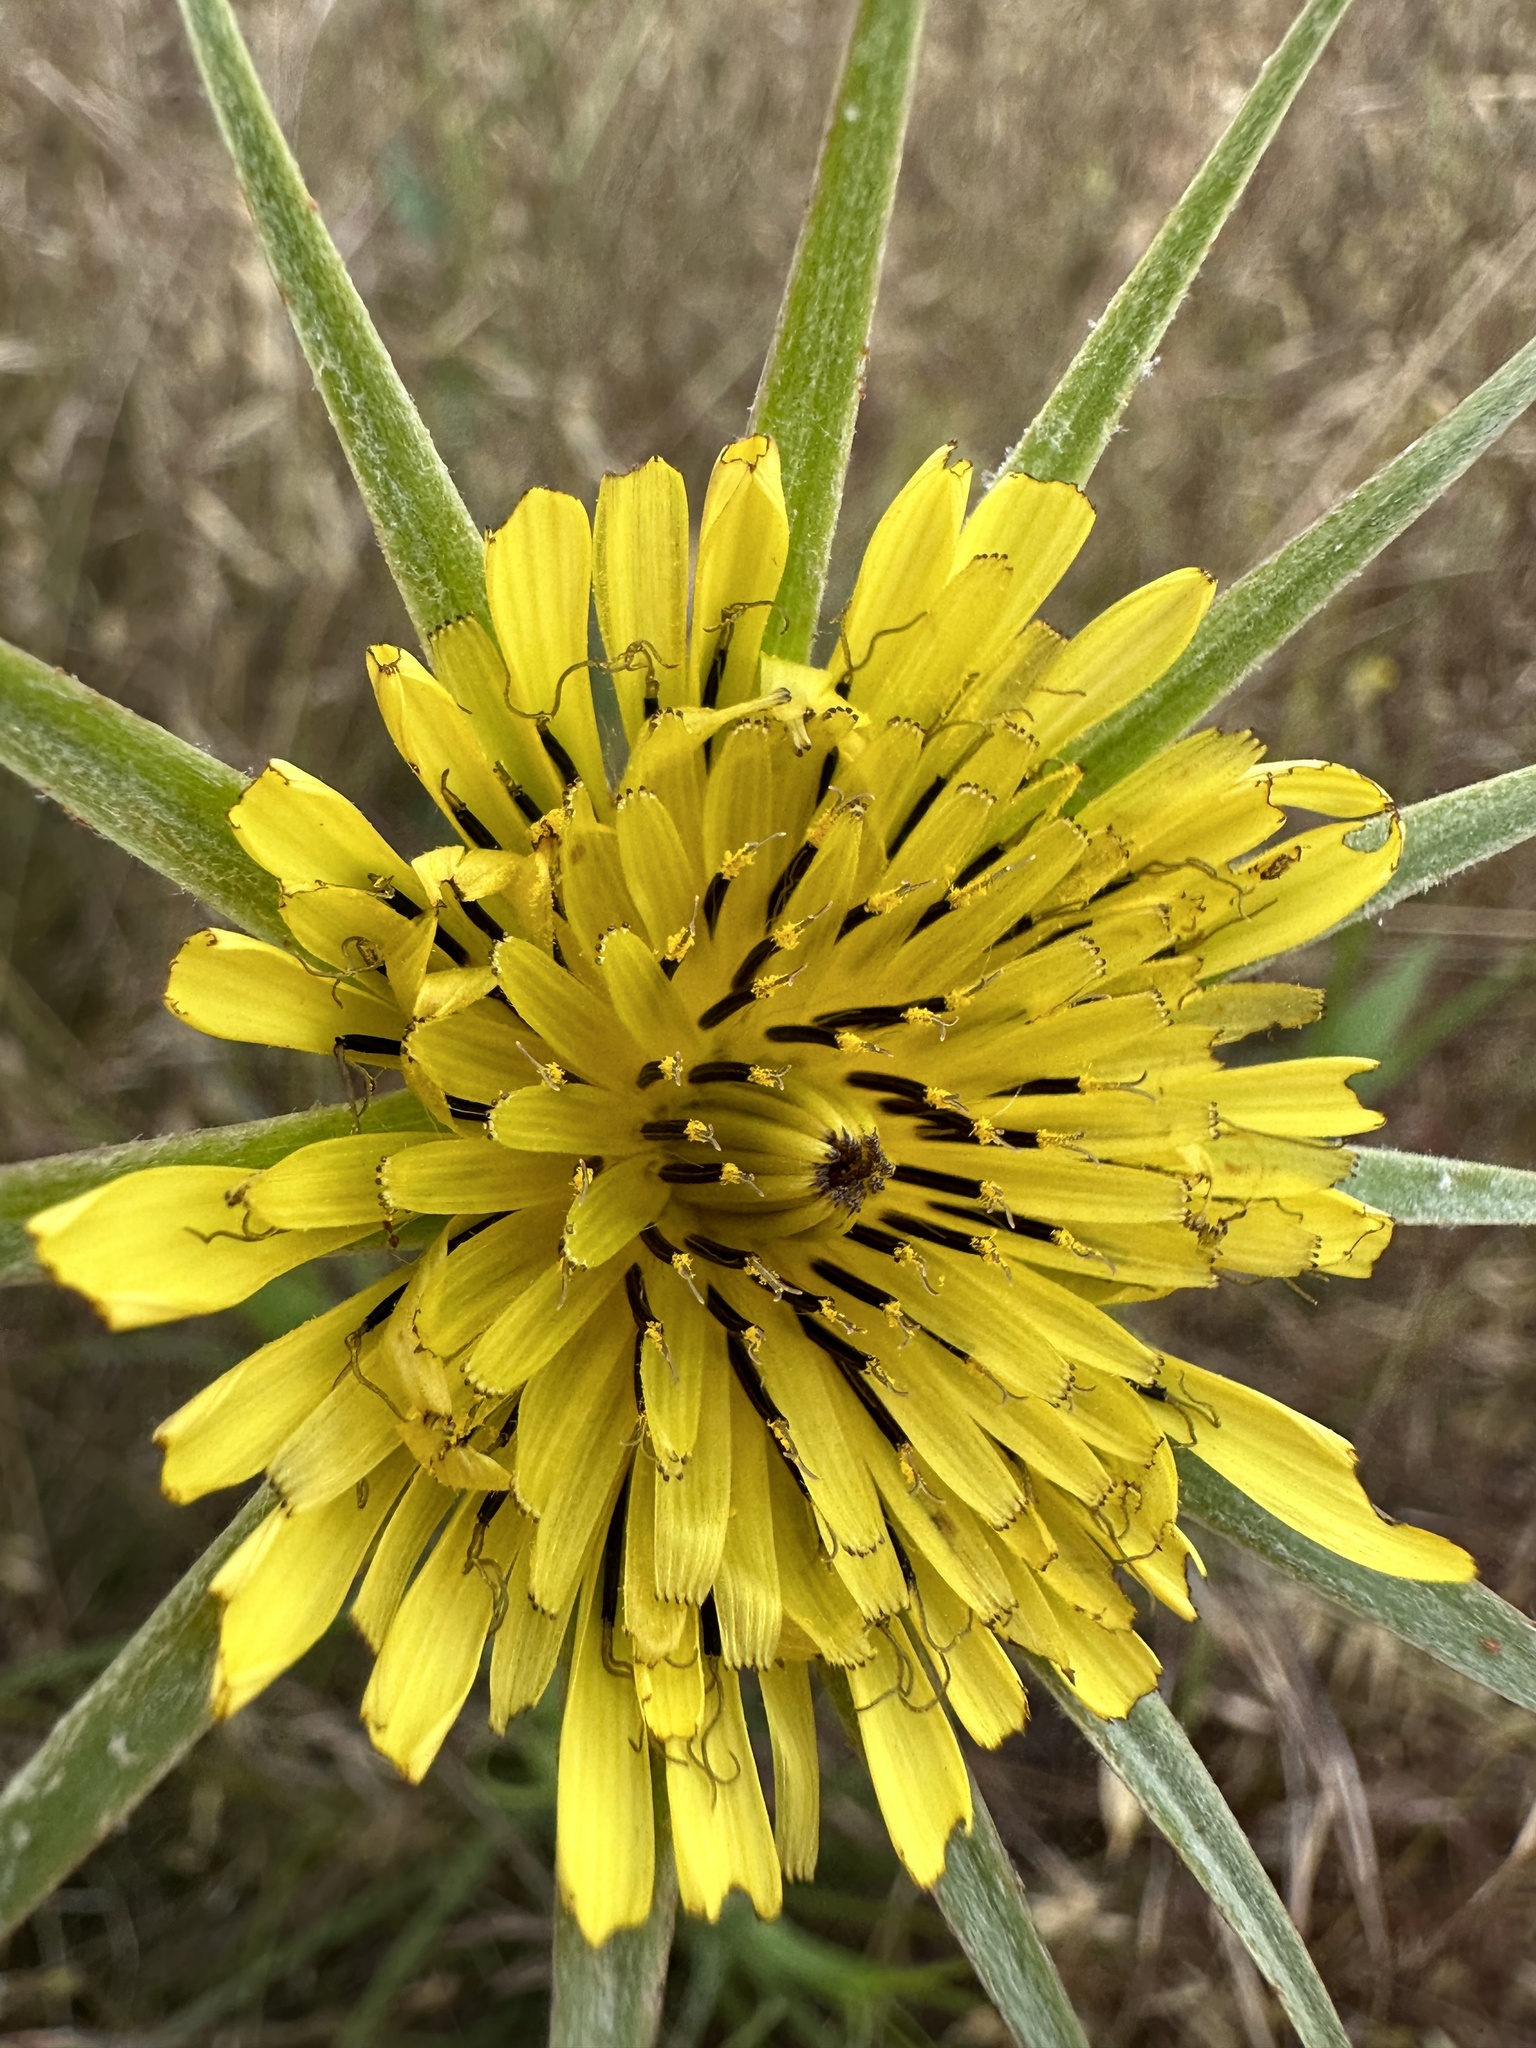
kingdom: Plantae
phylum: Tracheophyta
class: Magnoliopsida
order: Asterales
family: Asteraceae
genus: Tragopogon
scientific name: Tragopogon dubius
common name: Yellow salsify
